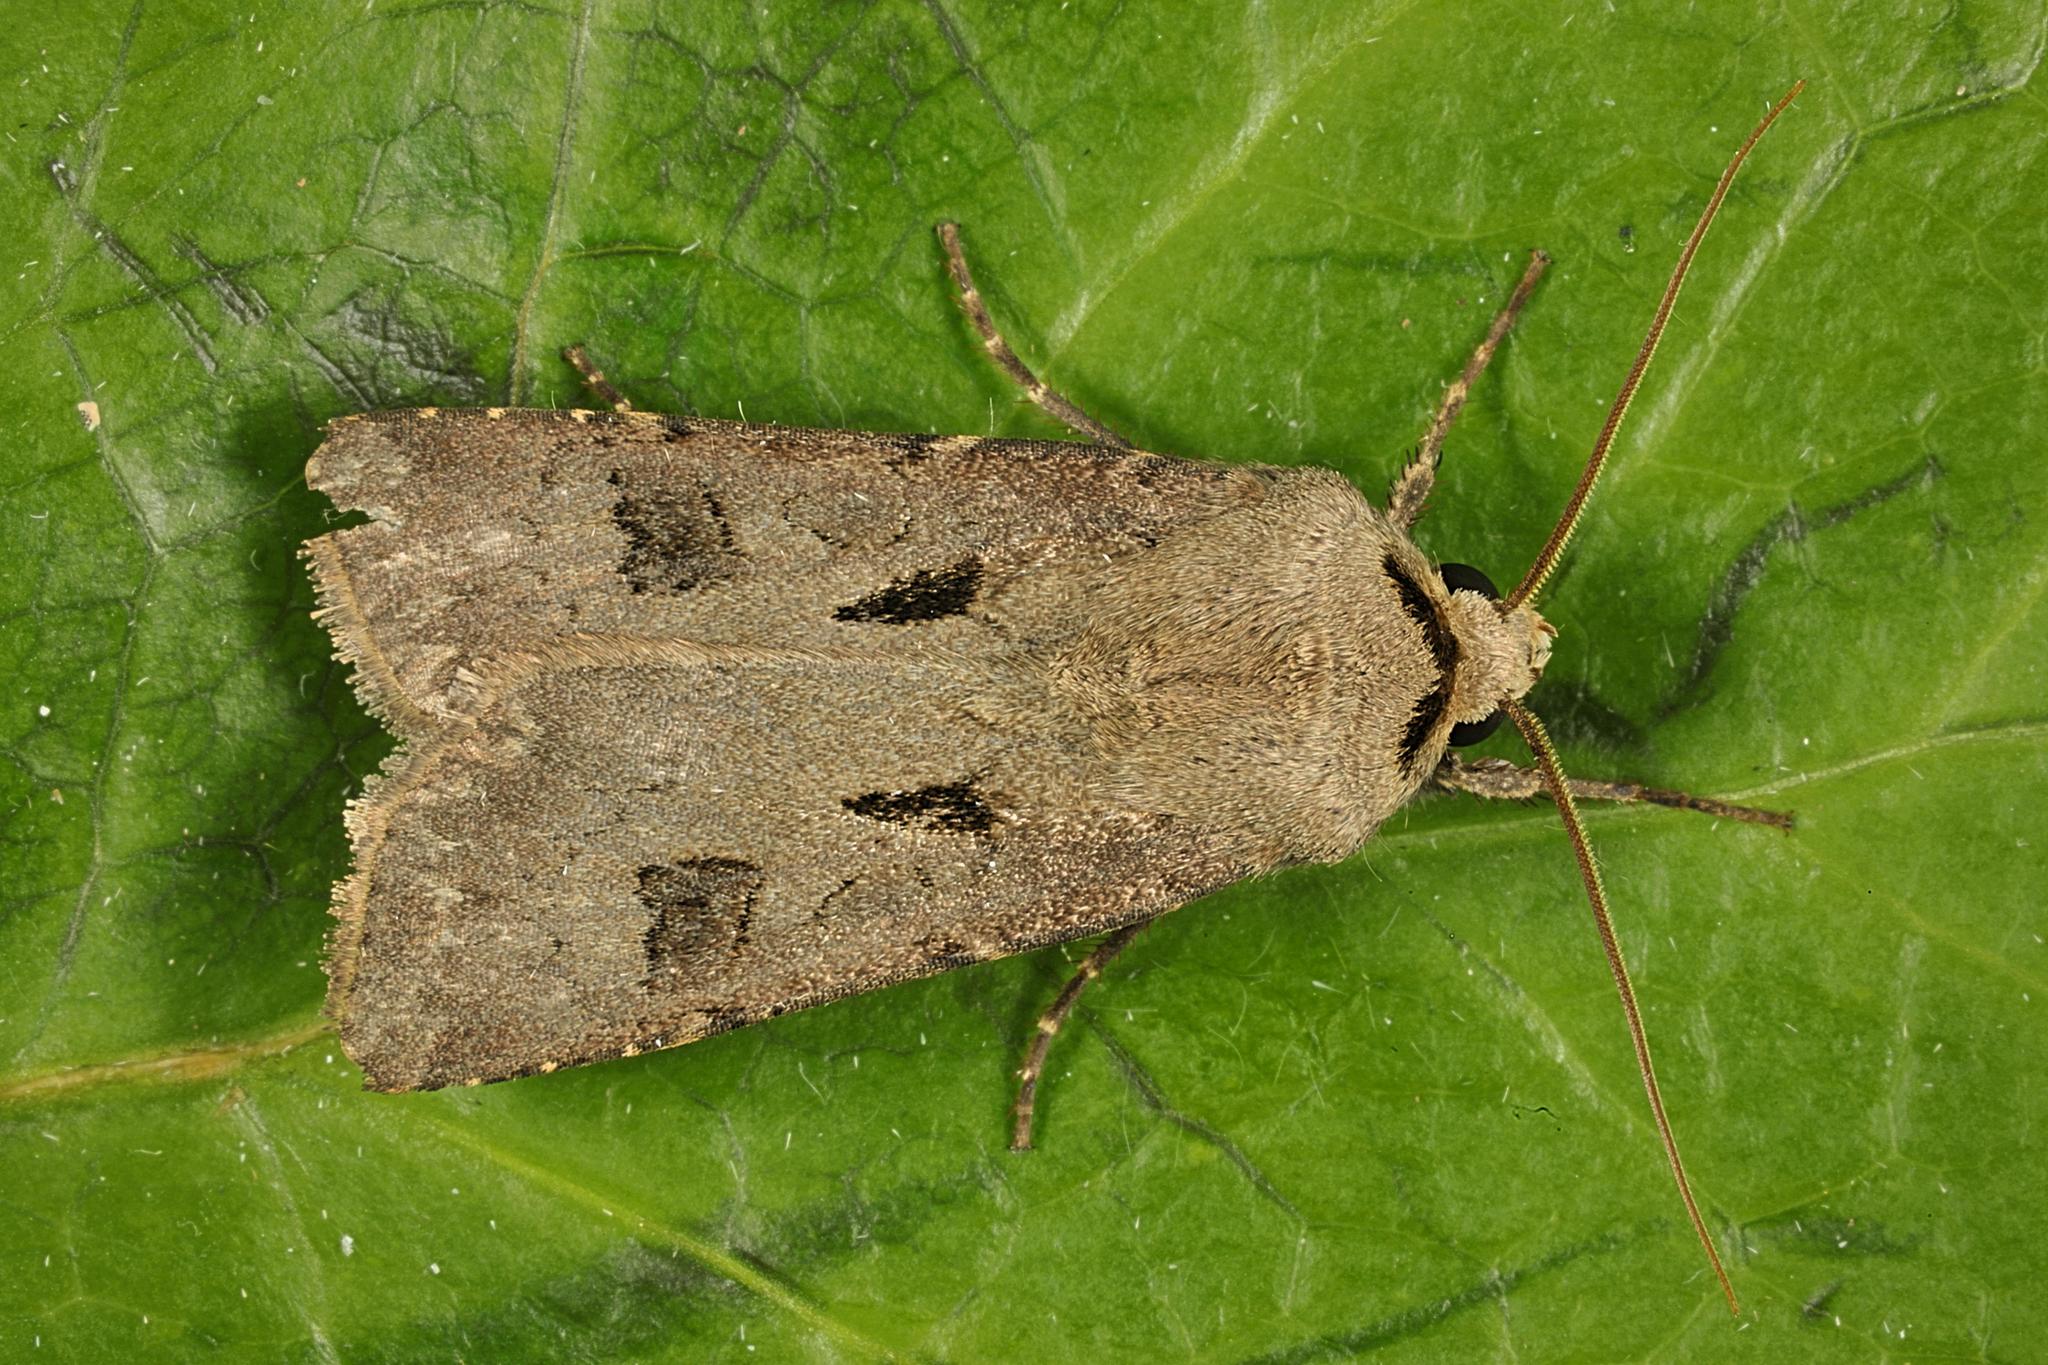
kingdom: Animalia
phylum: Arthropoda
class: Insecta
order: Lepidoptera
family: Noctuidae
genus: Agrotis
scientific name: Agrotis exclamationis
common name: Heart and dart
